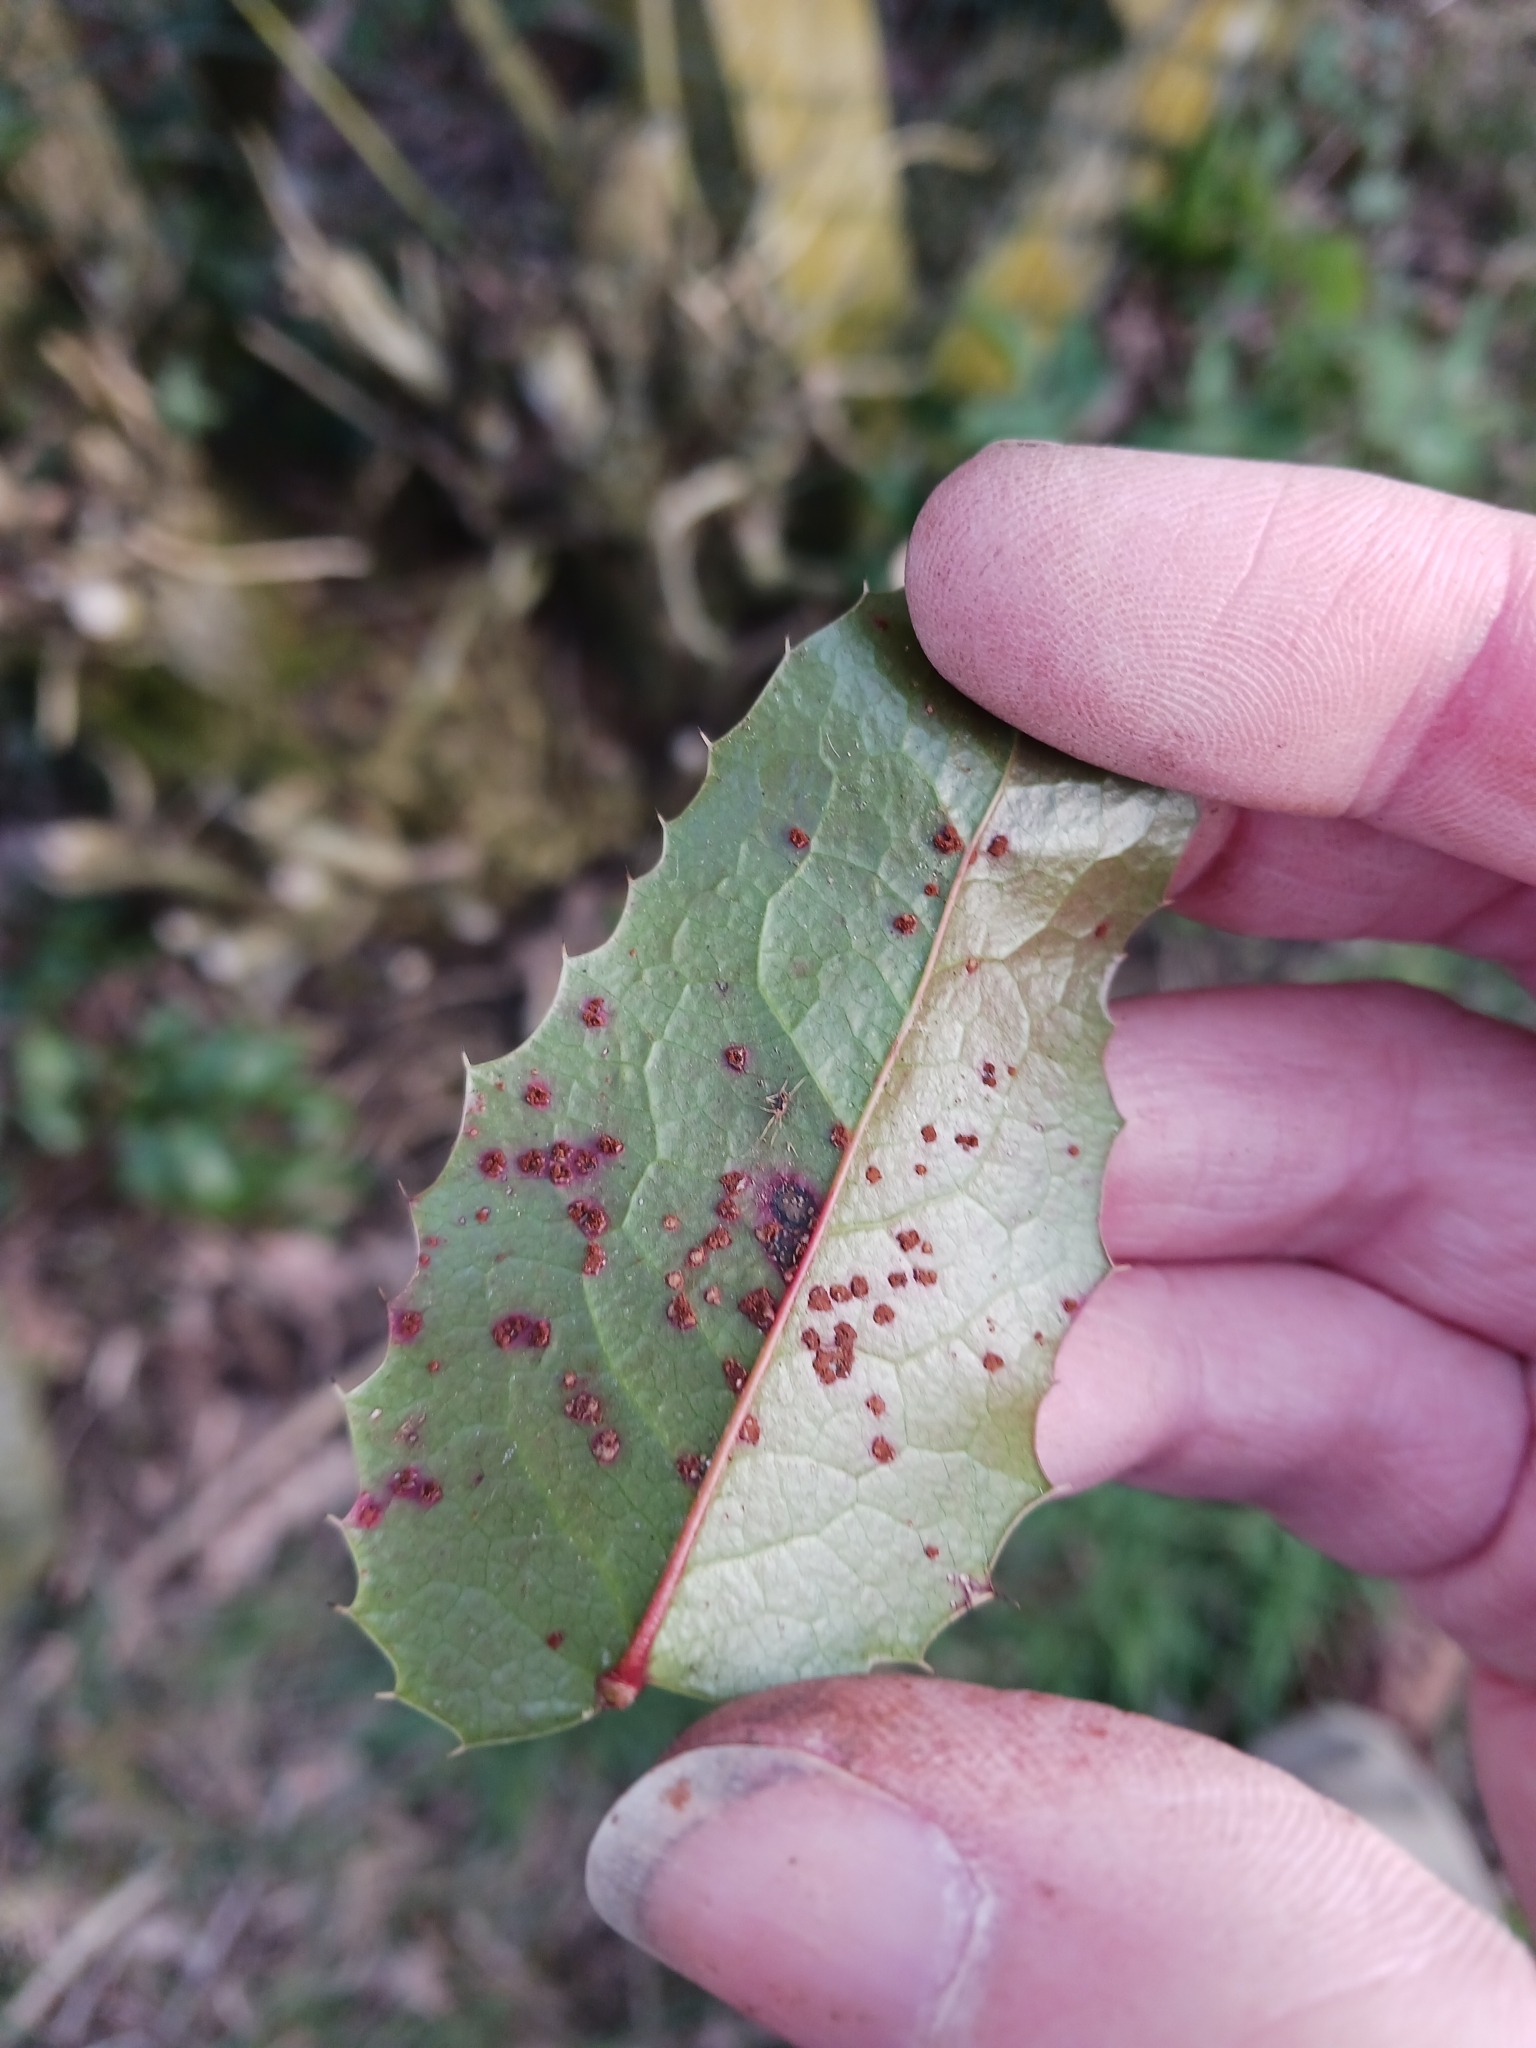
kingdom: Fungi
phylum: Basidiomycota
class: Pucciniomycetes
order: Pucciniales
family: Pucciniaceae
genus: Cumminsiella
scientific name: Cumminsiella mirabilissima
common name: Mahonia rust
